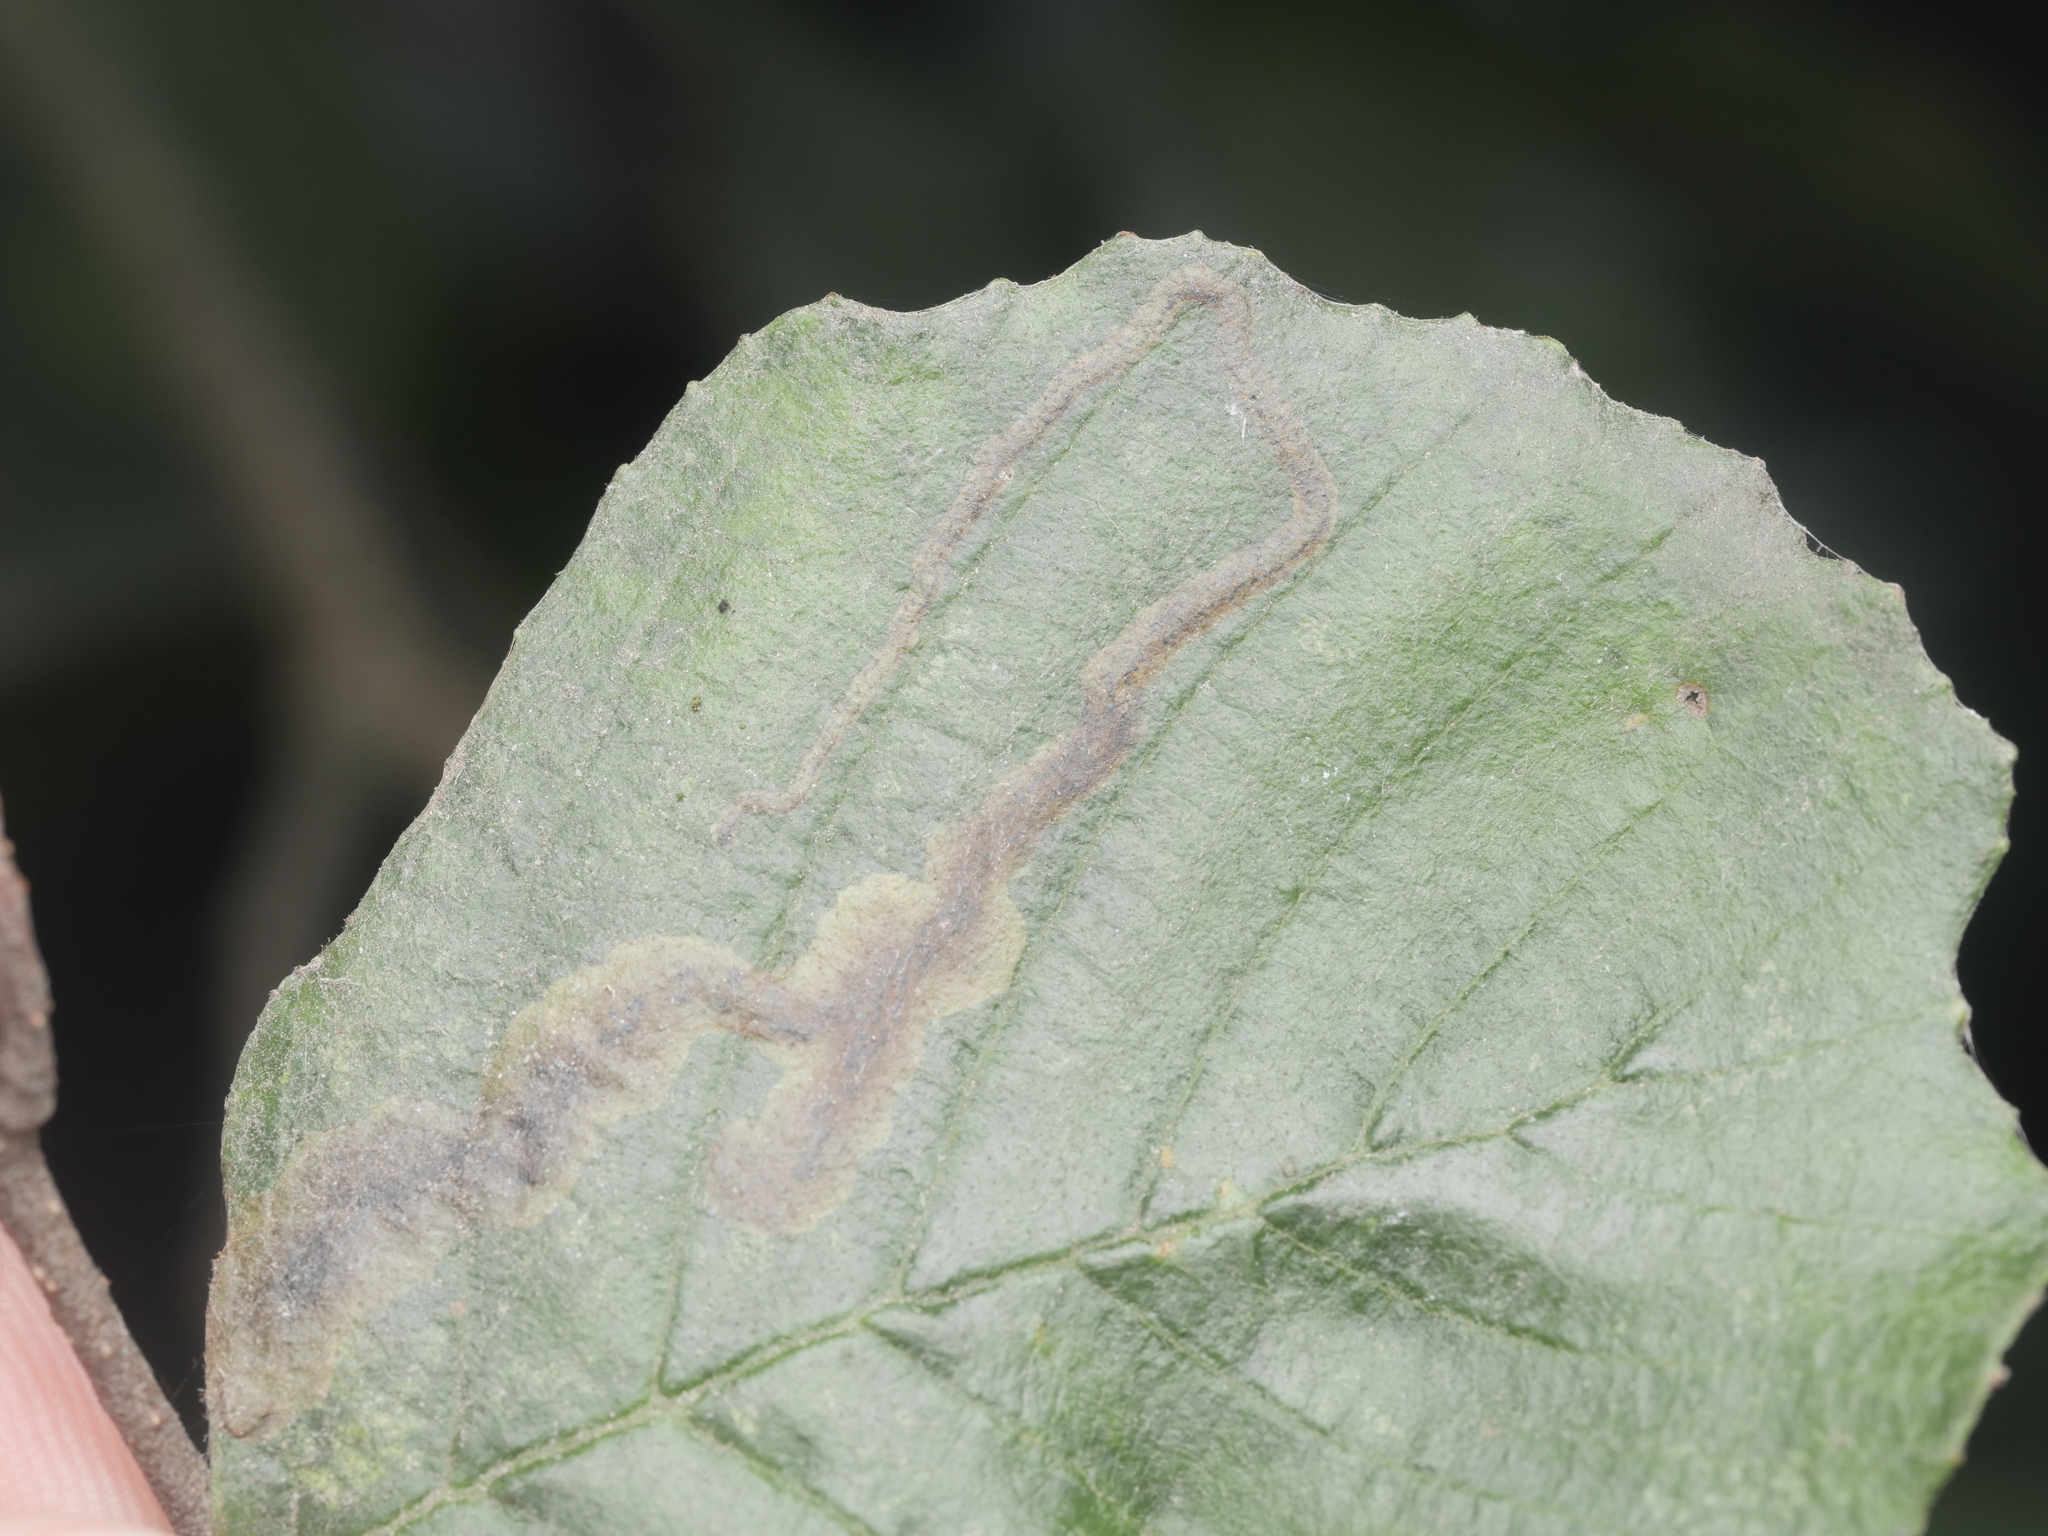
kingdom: Animalia
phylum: Arthropoda
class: Insecta
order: Diptera
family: Agromyzidae
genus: Agromyza
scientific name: Agromyza alnivora
